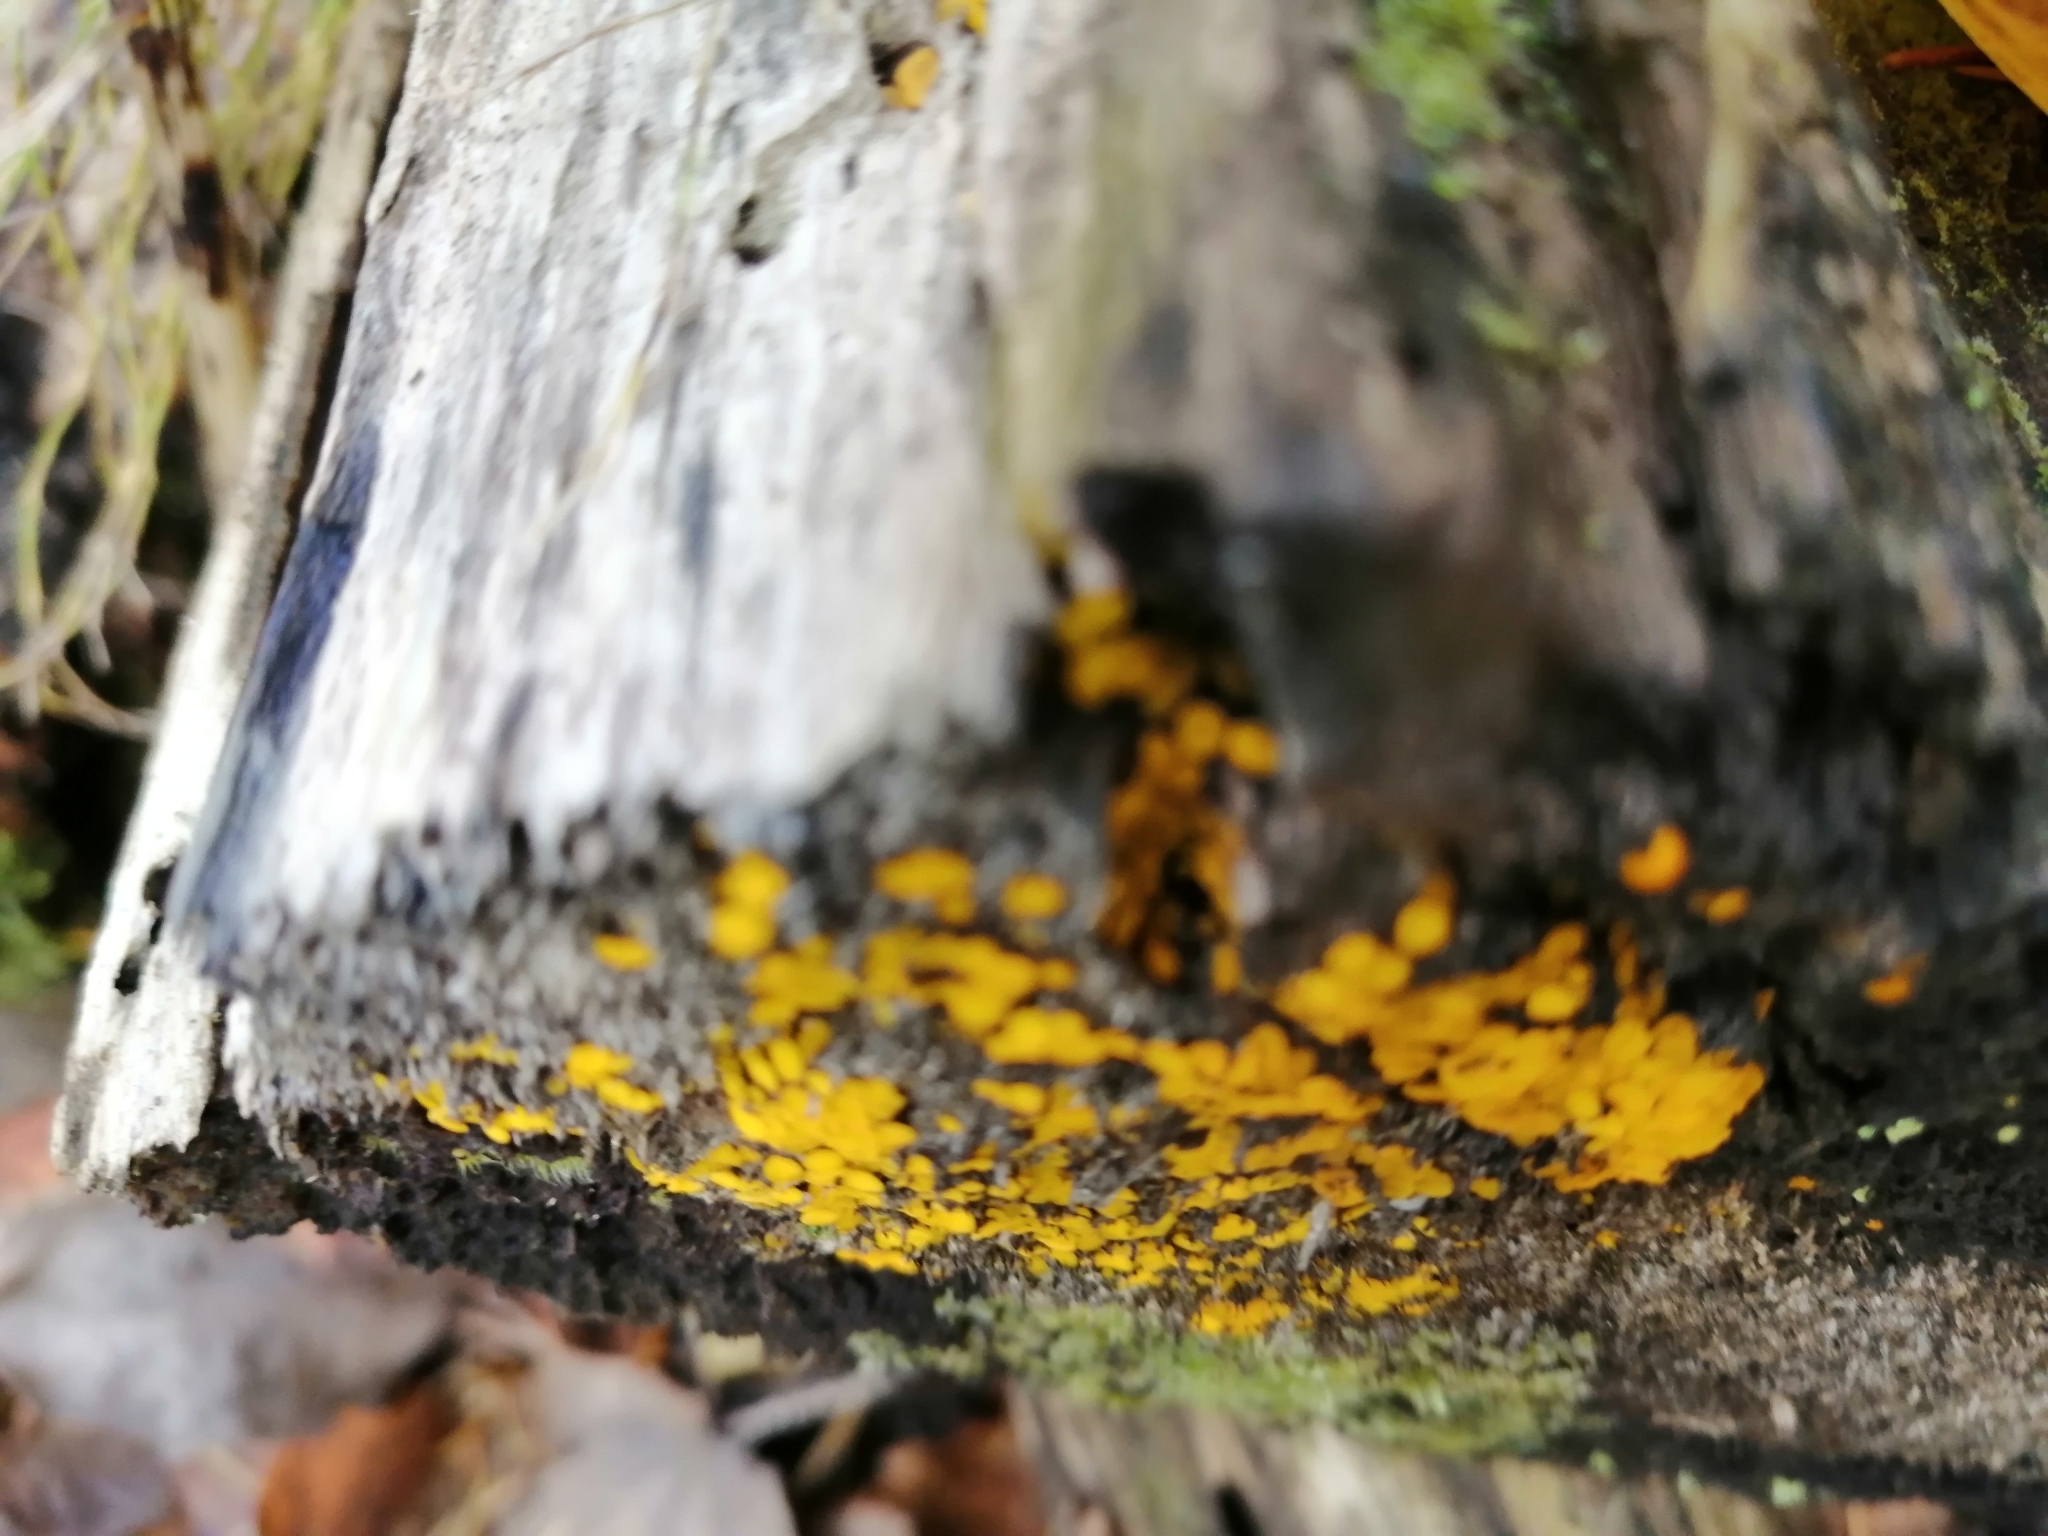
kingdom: Fungi
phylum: Ascomycota
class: Leotiomycetes
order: Helotiales
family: Pezizellaceae
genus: Calycina
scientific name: Calycina citrina
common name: Yellow fairy cups
